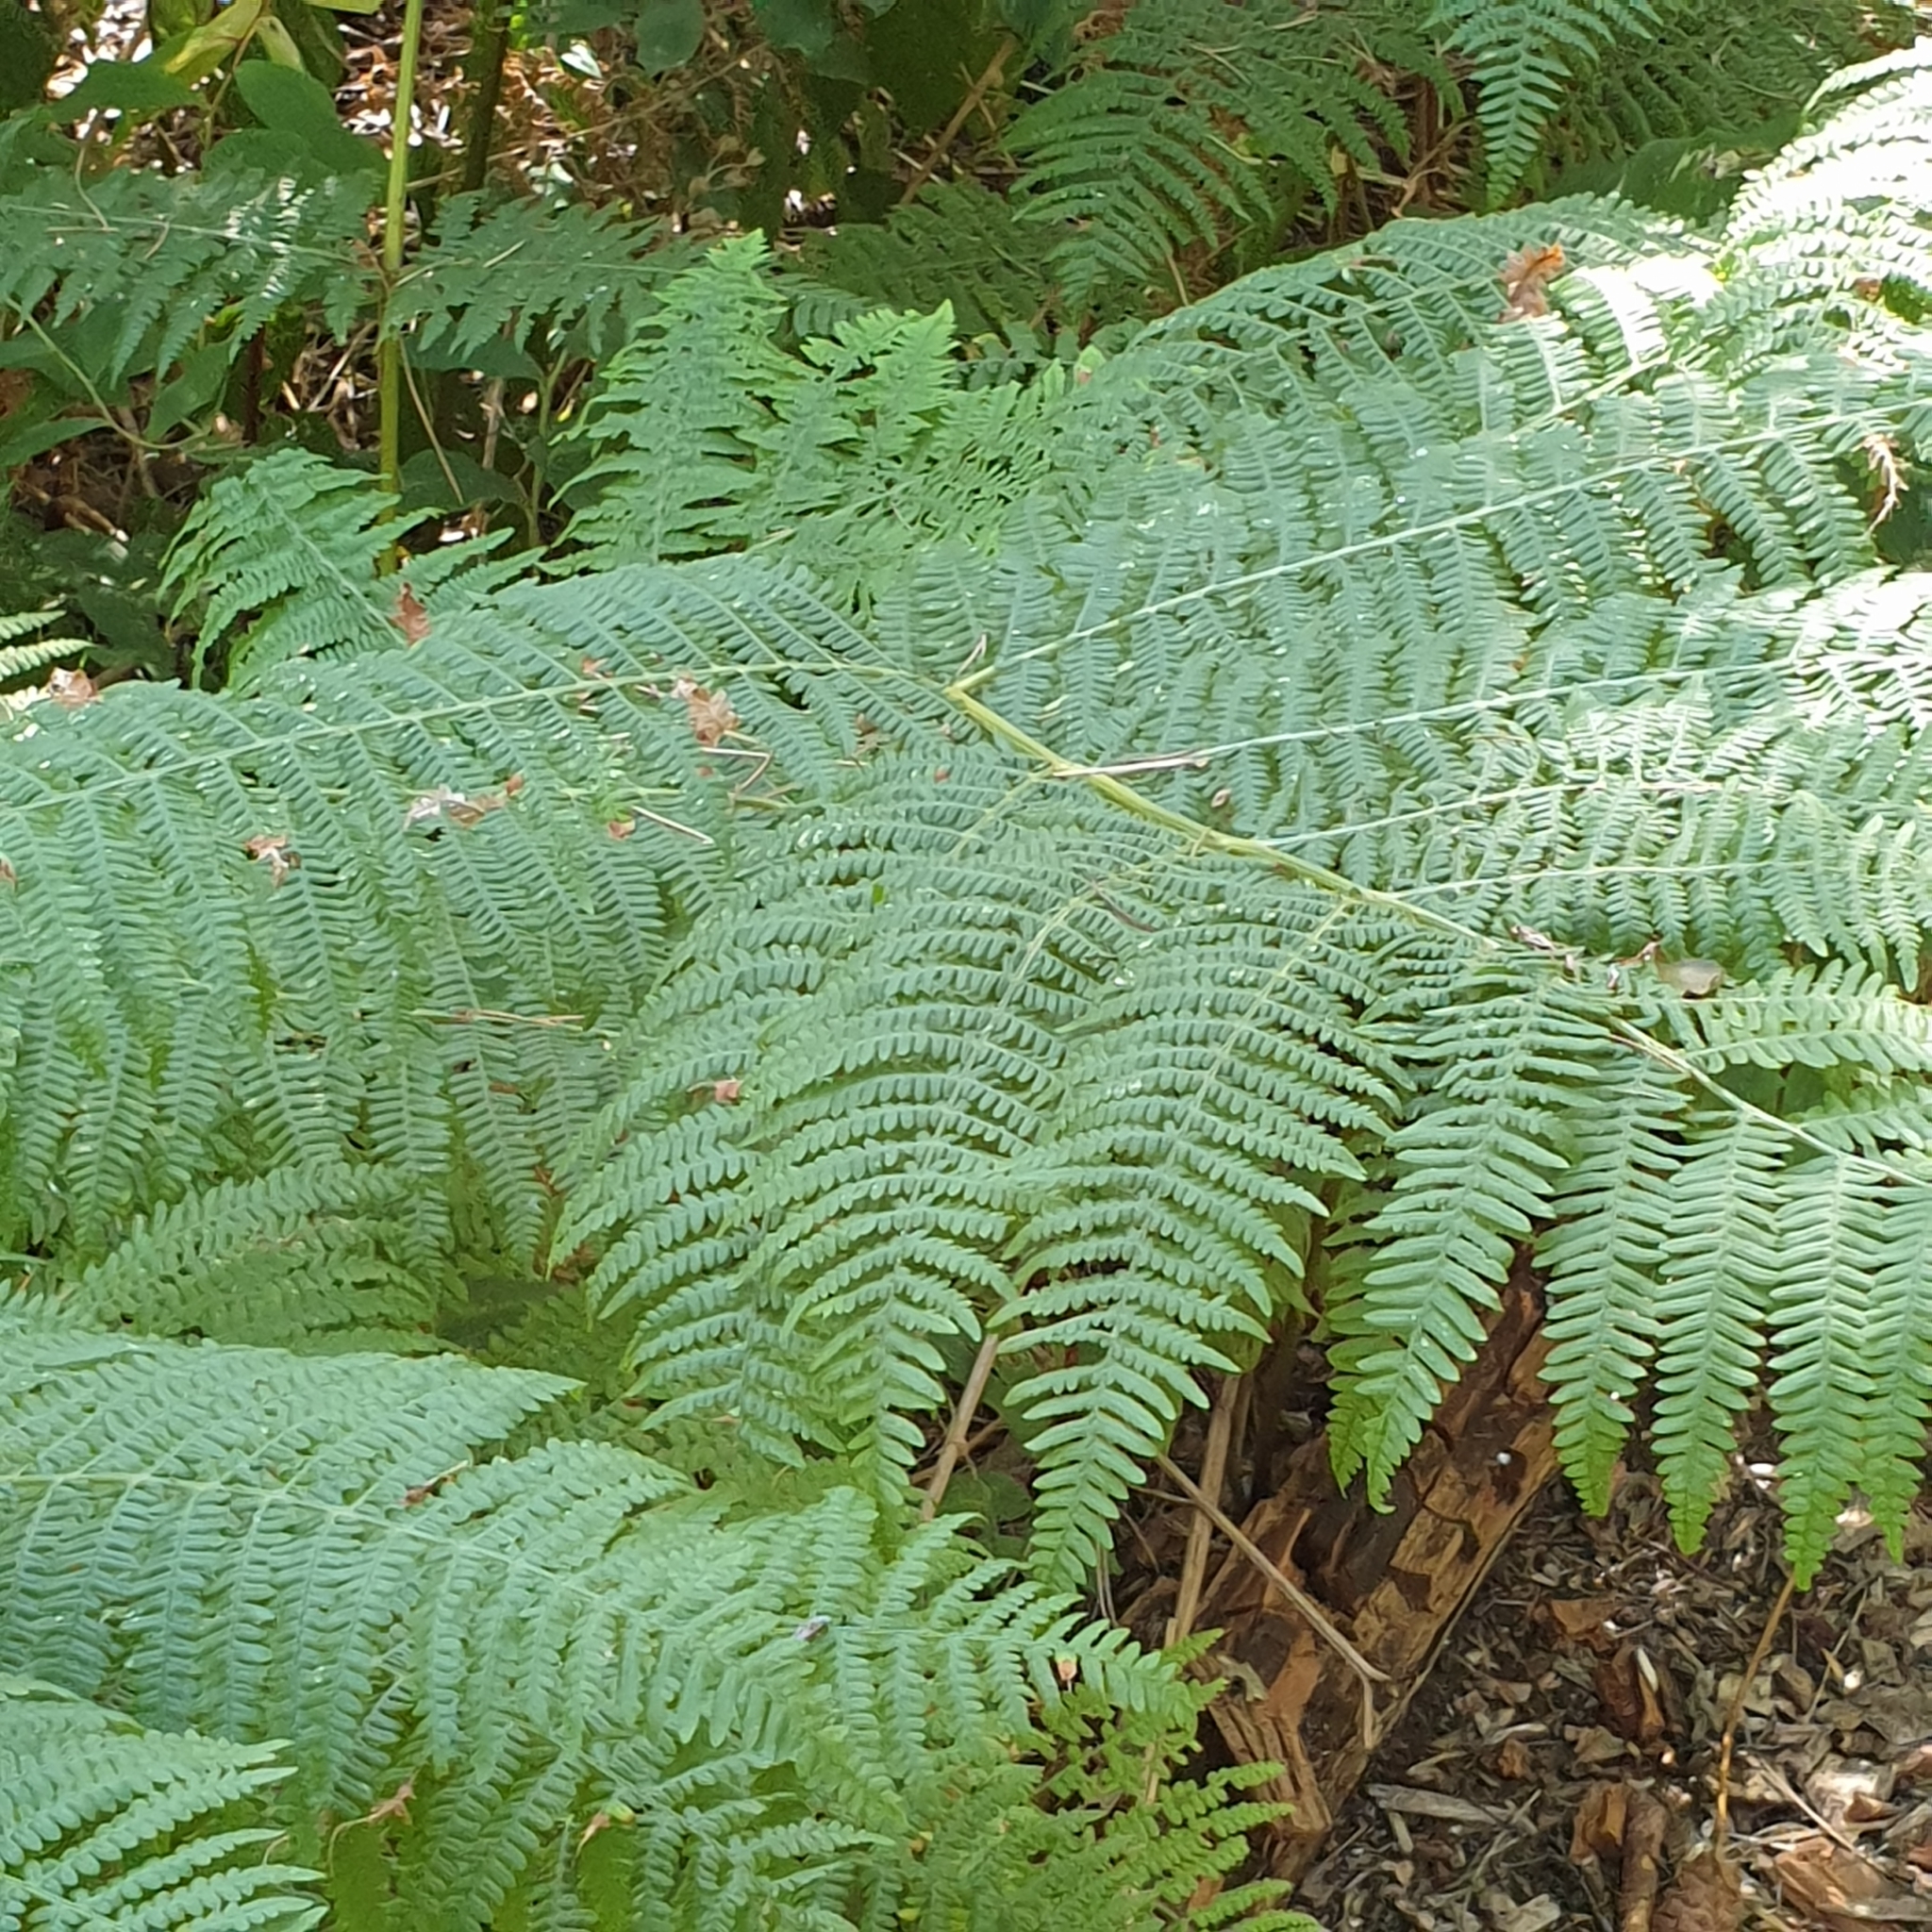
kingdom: Plantae
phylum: Tracheophyta
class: Polypodiopsida
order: Polypodiales
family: Dennstaedtiaceae
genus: Pteridium
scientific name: Pteridium aquilinum
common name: Bracken
